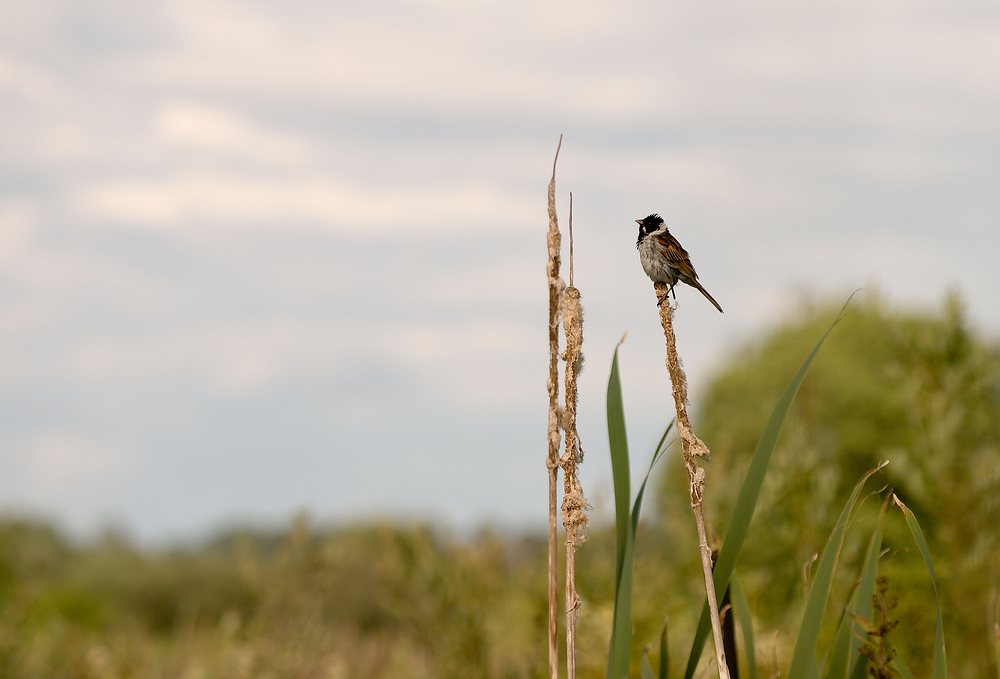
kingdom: Animalia
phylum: Chordata
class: Aves
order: Passeriformes
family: Emberizidae
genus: Emberiza
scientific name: Emberiza schoeniclus
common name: Reed bunting
